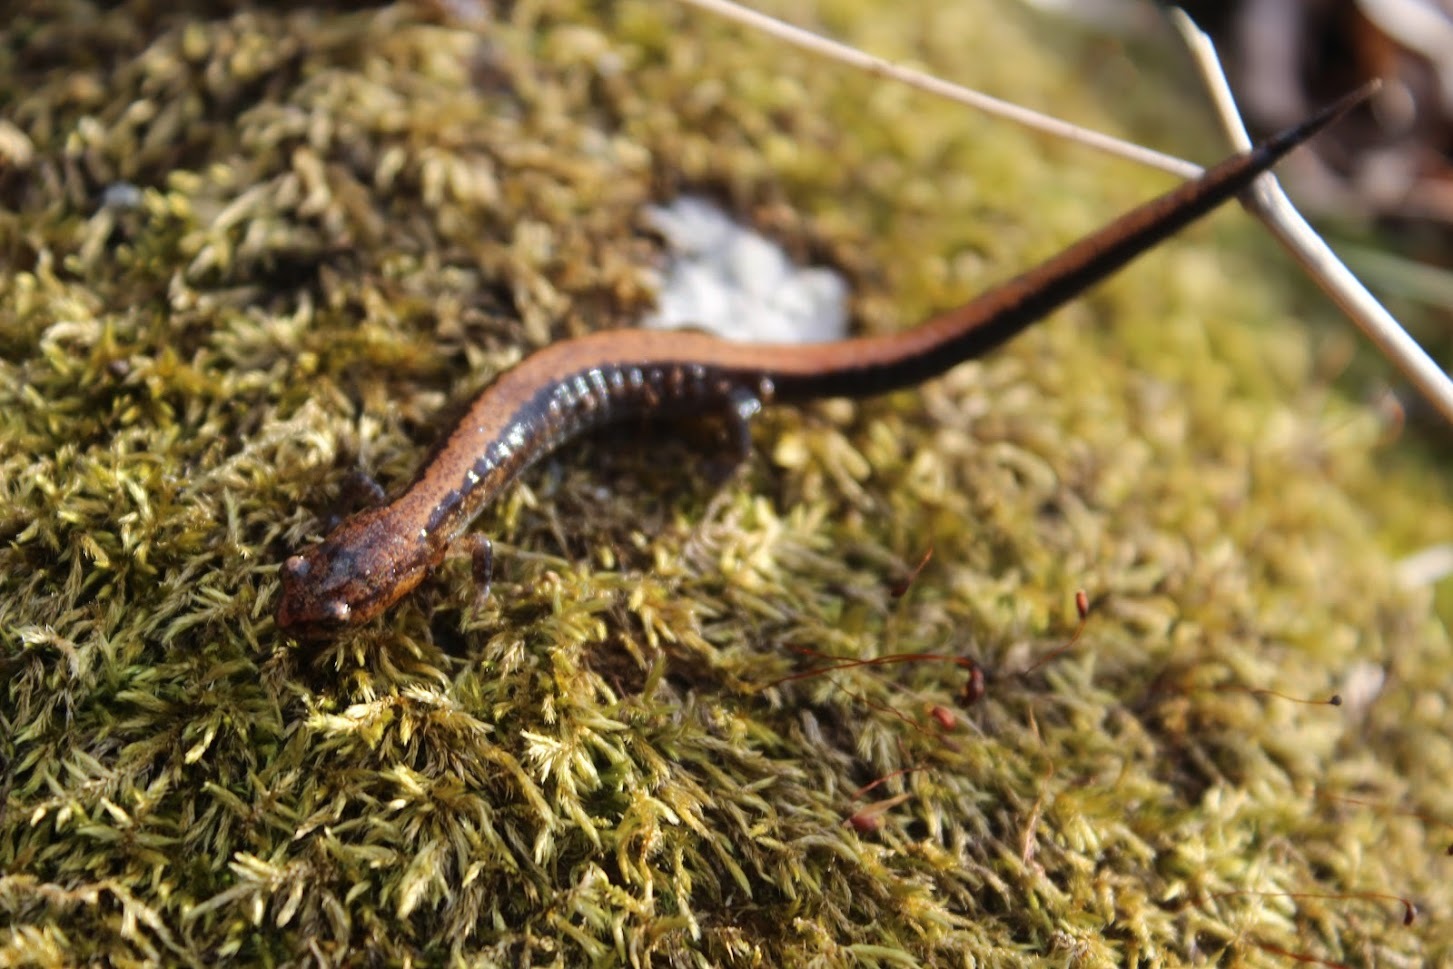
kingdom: Animalia
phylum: Chordata
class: Amphibia
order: Caudata
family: Plethodontidae
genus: Plethodon
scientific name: Plethodon cinereus
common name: Redback salamander
